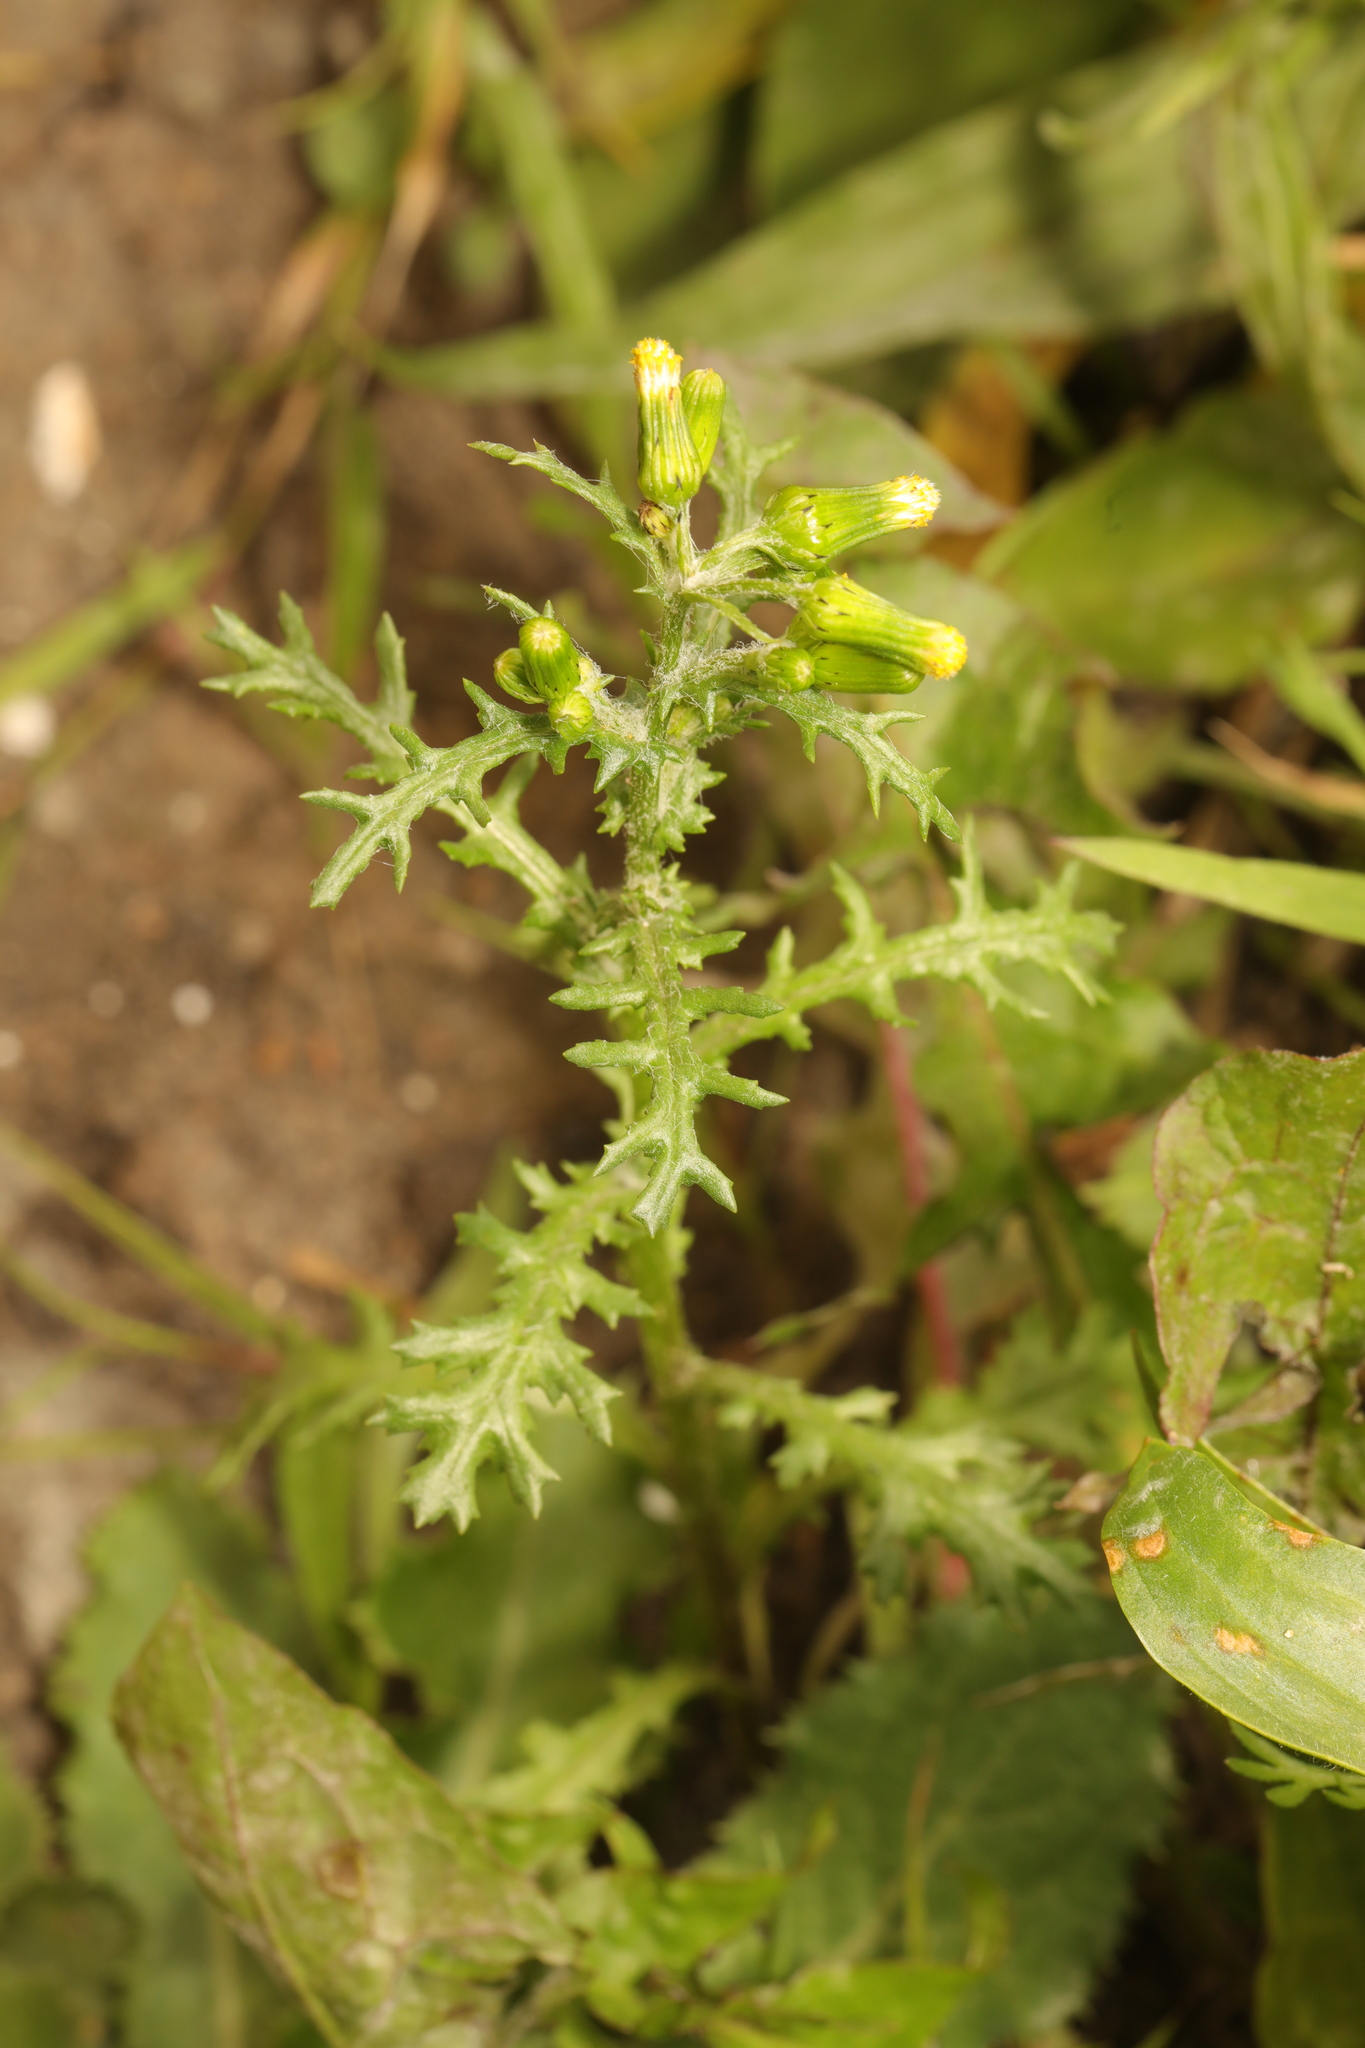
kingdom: Plantae
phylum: Tracheophyta
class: Magnoliopsida
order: Asterales
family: Asteraceae
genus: Senecio
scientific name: Senecio vulgaris
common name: Old-man-in-the-spring
